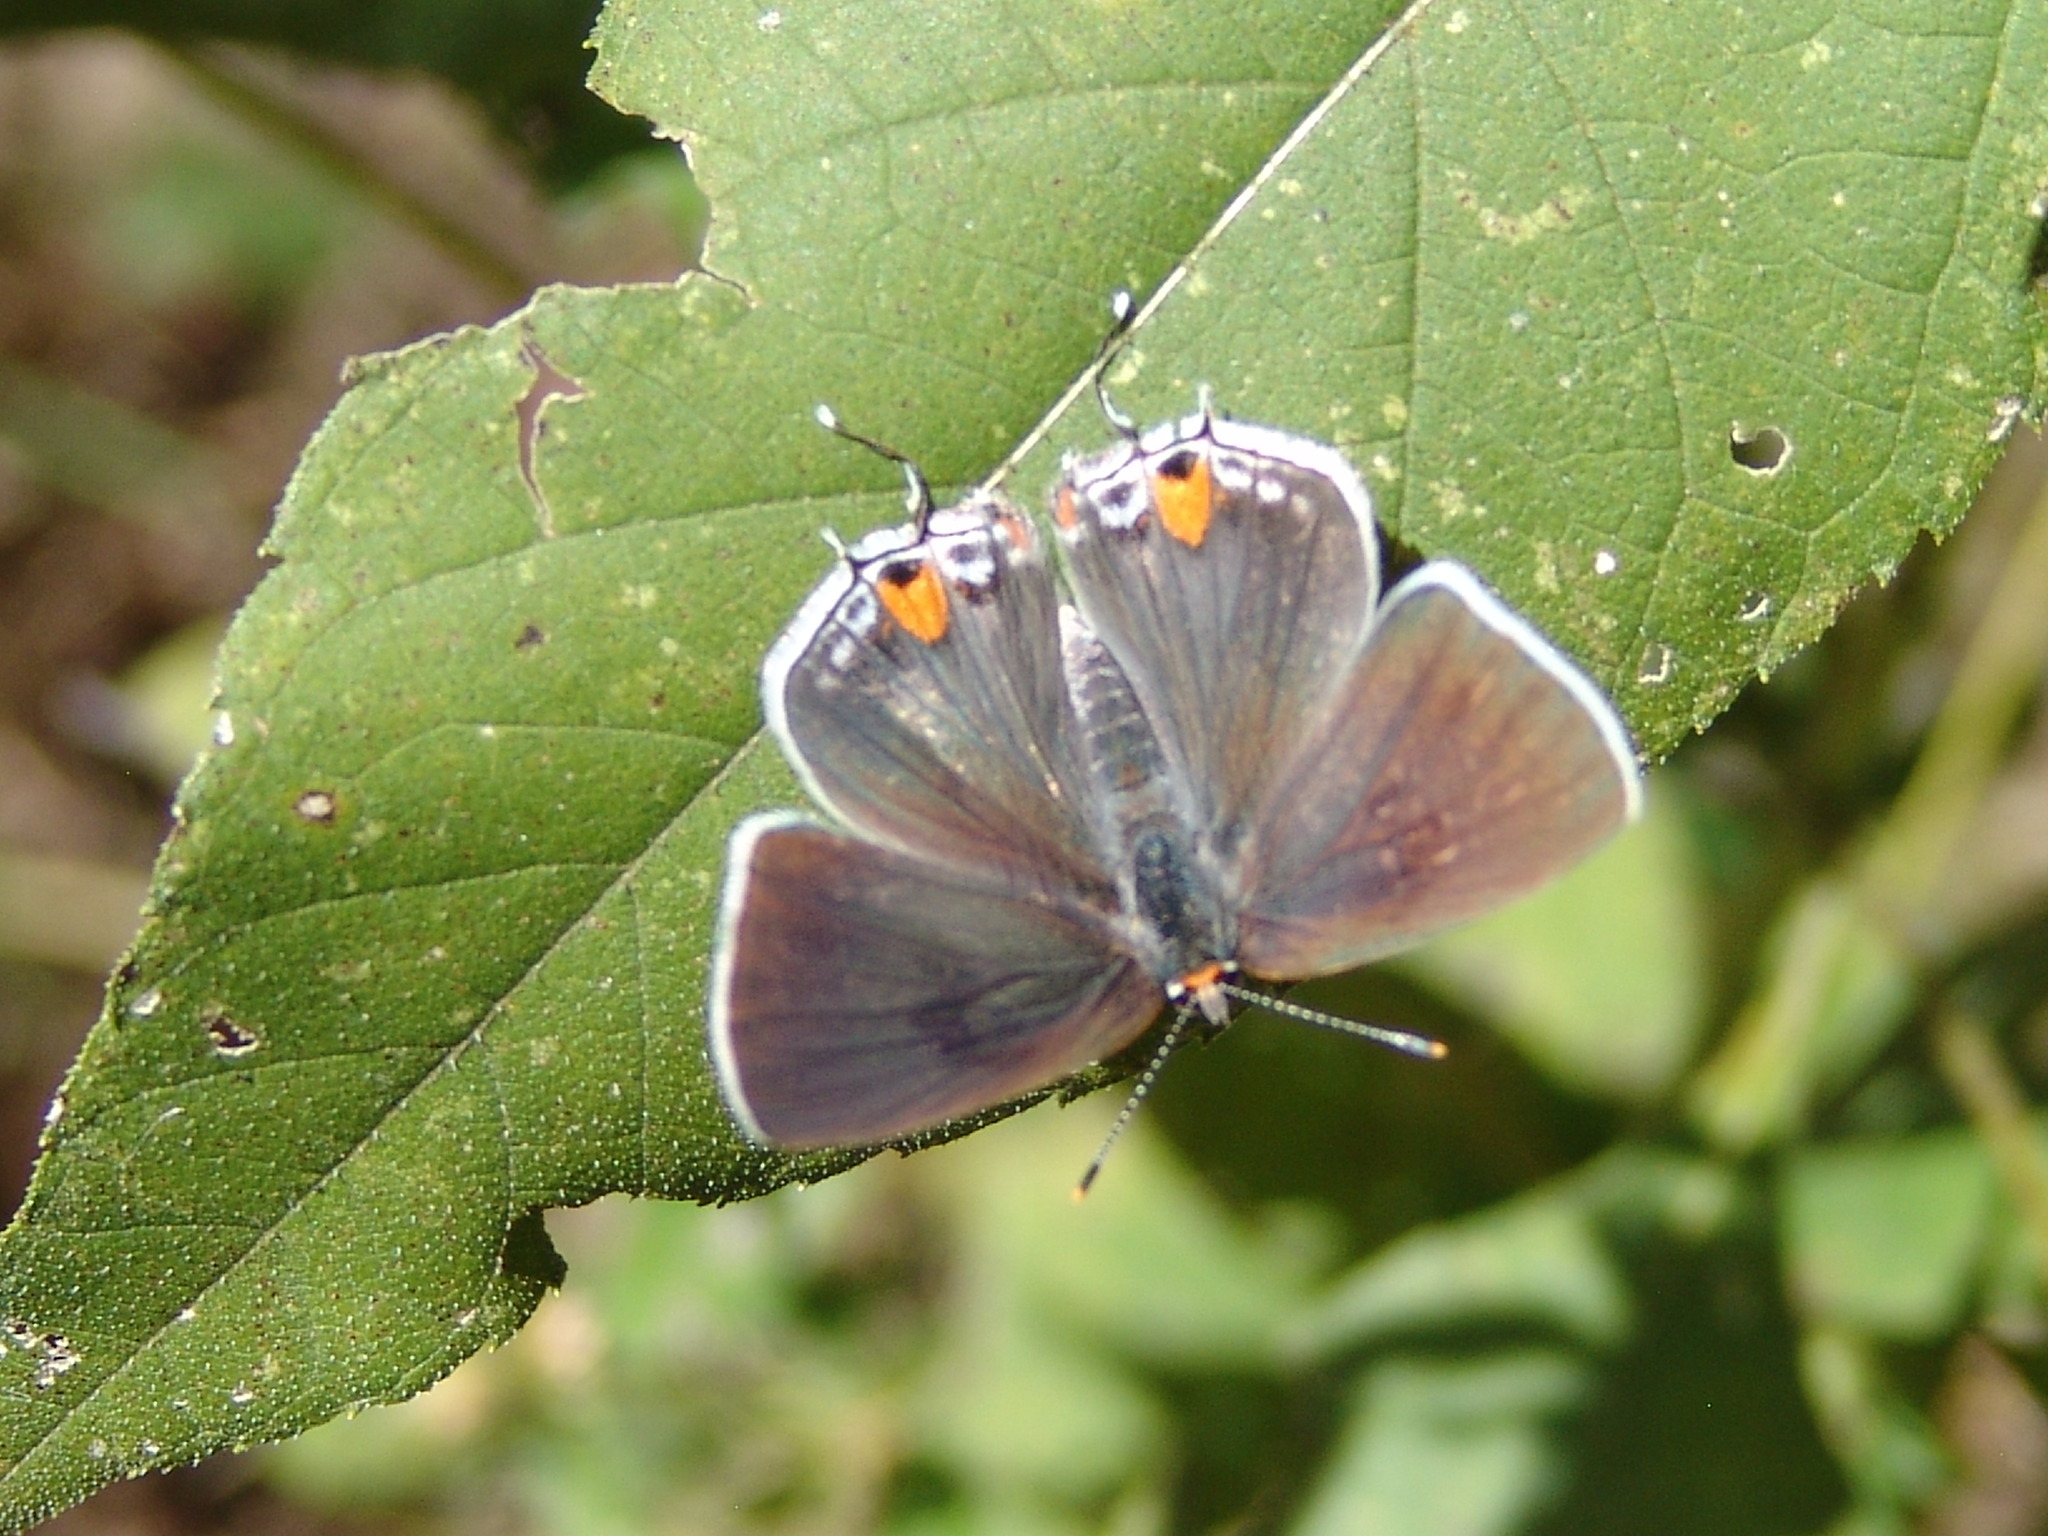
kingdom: Animalia
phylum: Arthropoda
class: Insecta
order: Lepidoptera
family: Lycaenidae
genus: Strymon
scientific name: Strymon melinus
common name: Gray hairstreak
